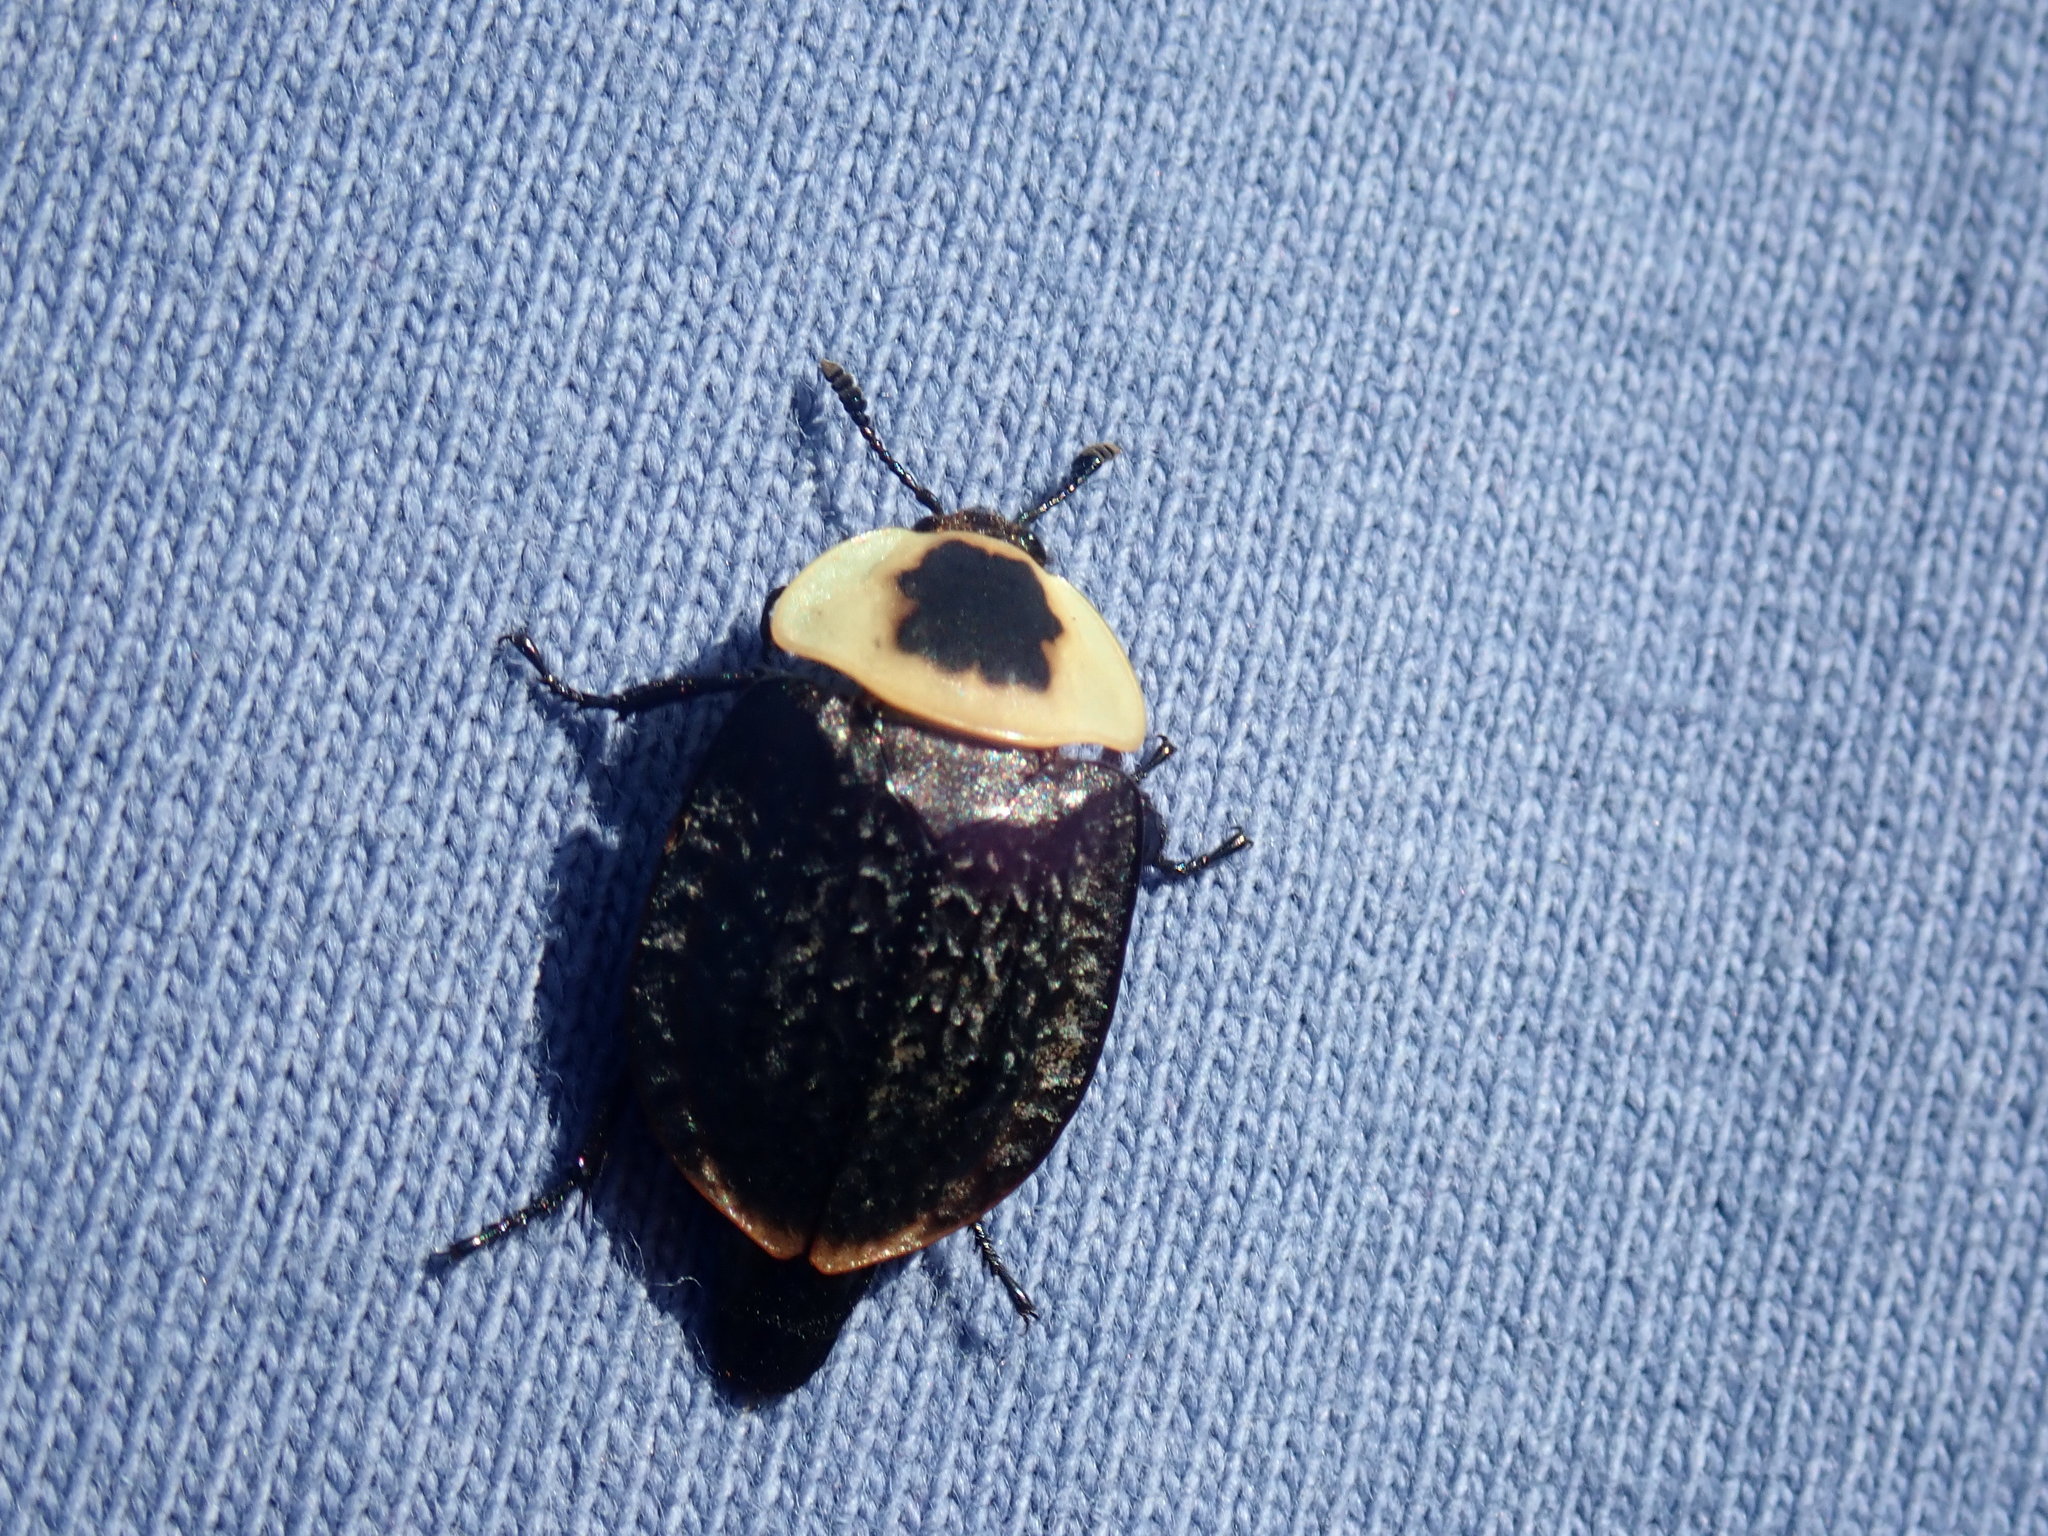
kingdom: Animalia
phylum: Arthropoda
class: Insecta
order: Coleoptera
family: Staphylinidae
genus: Necrophila
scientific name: Necrophila americana
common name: American carrion beetle
